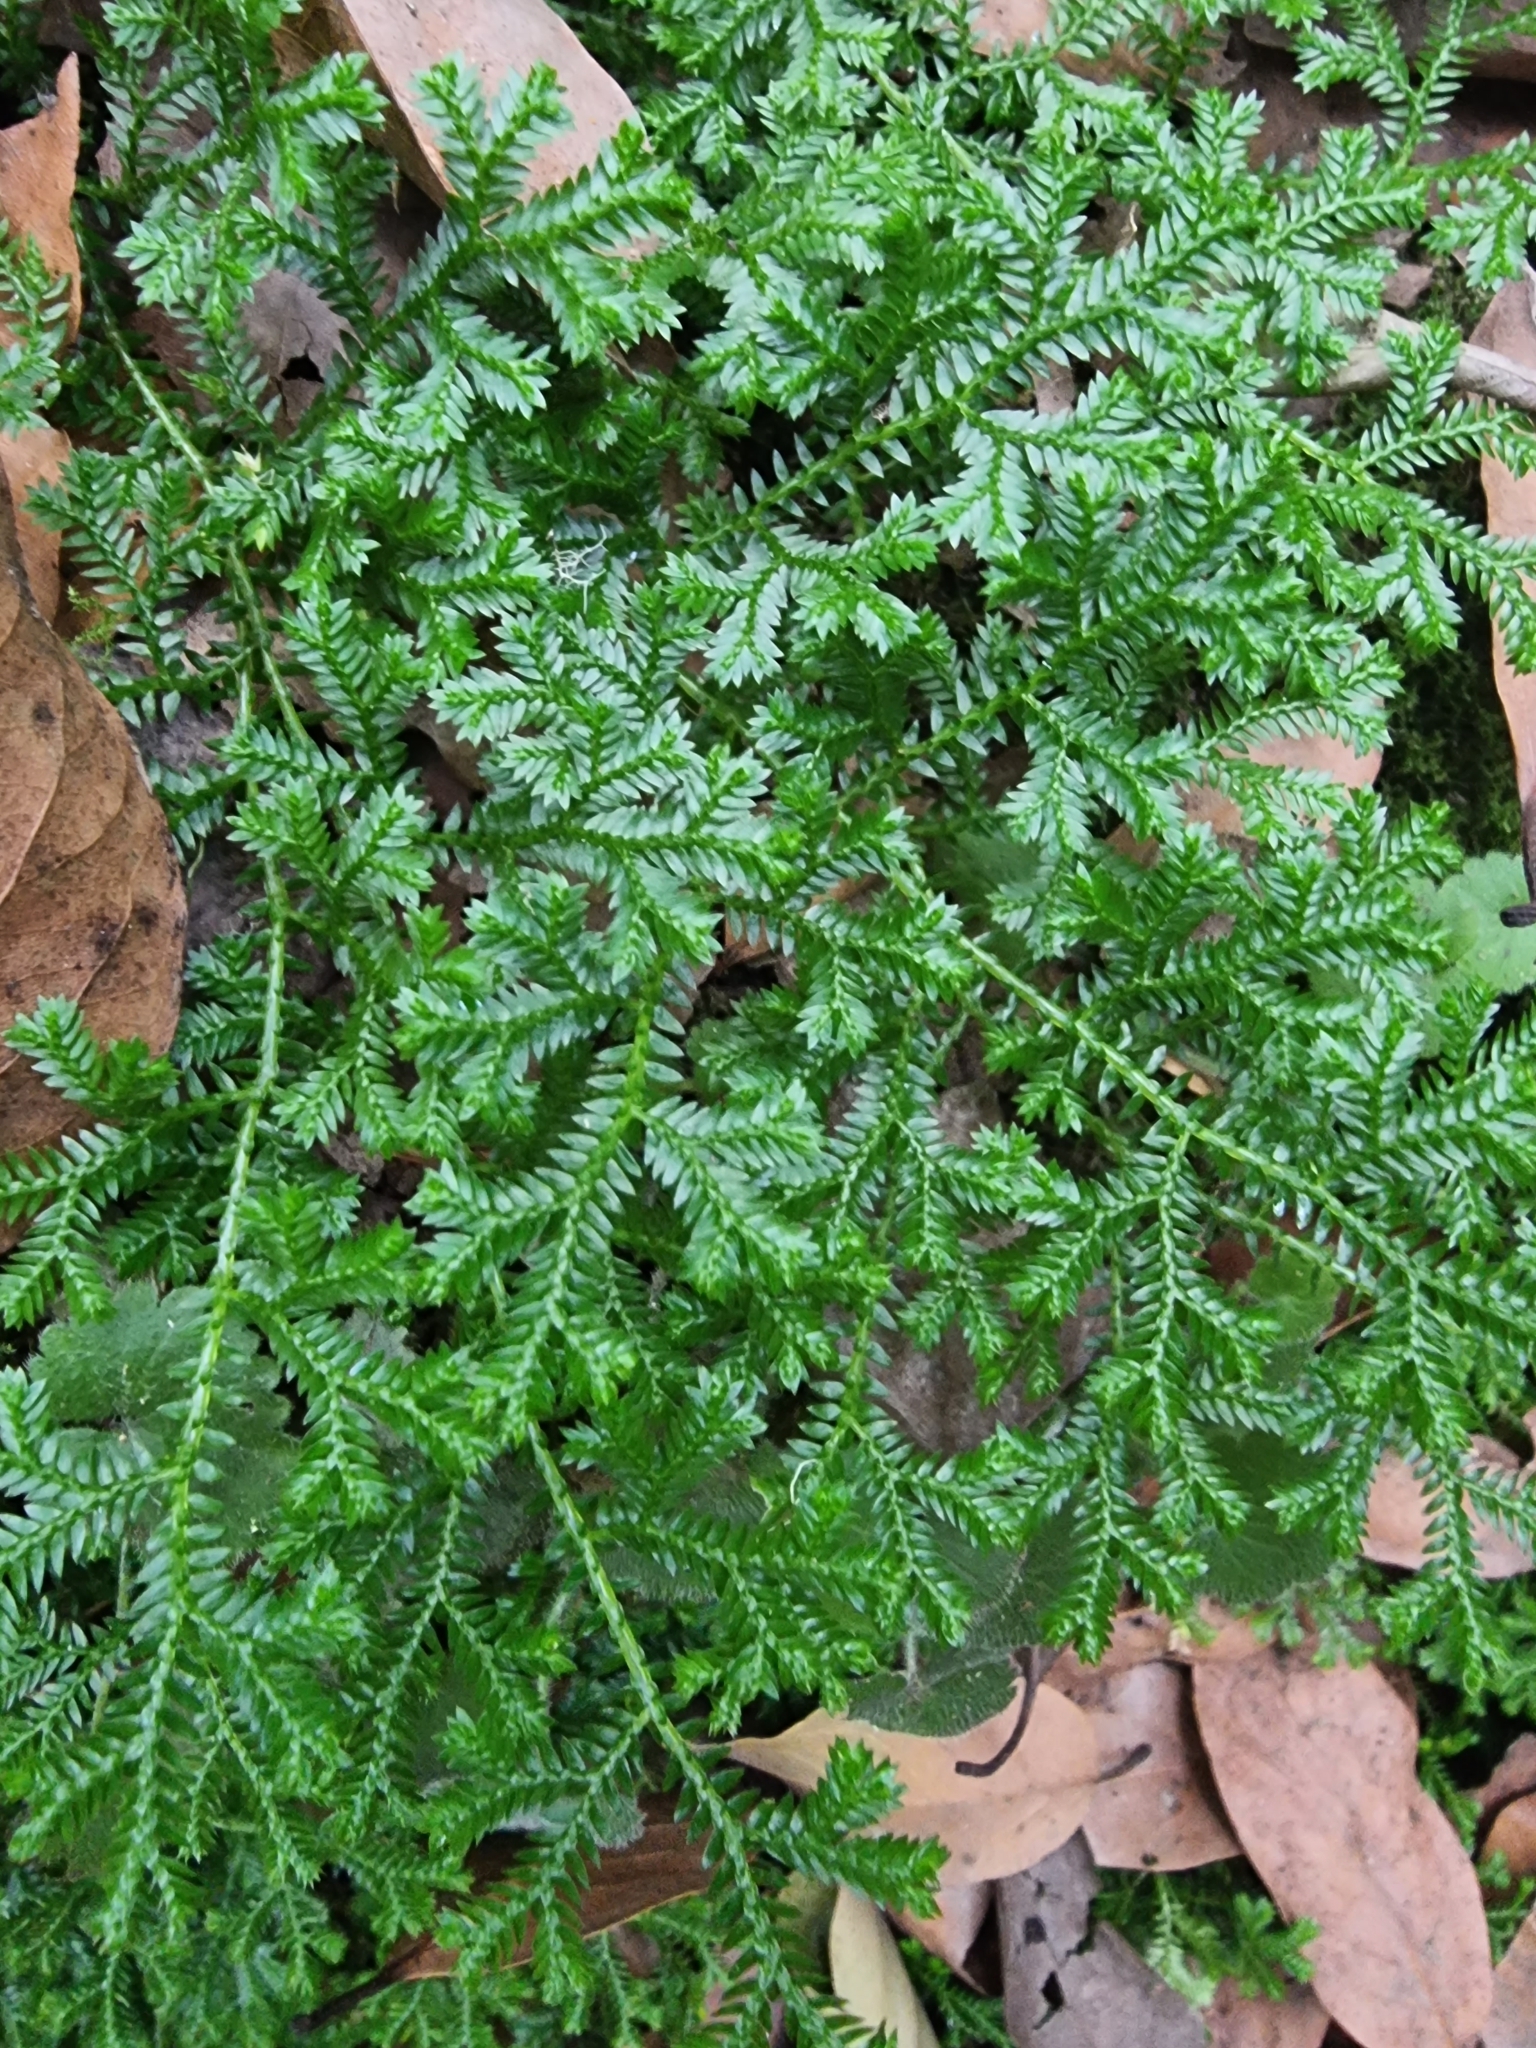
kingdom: Plantae
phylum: Tracheophyta
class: Lycopodiopsida
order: Selaginellales
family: Selaginellaceae
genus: Selaginella
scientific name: Selaginella kraussiana
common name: Krauss' spikemoss
